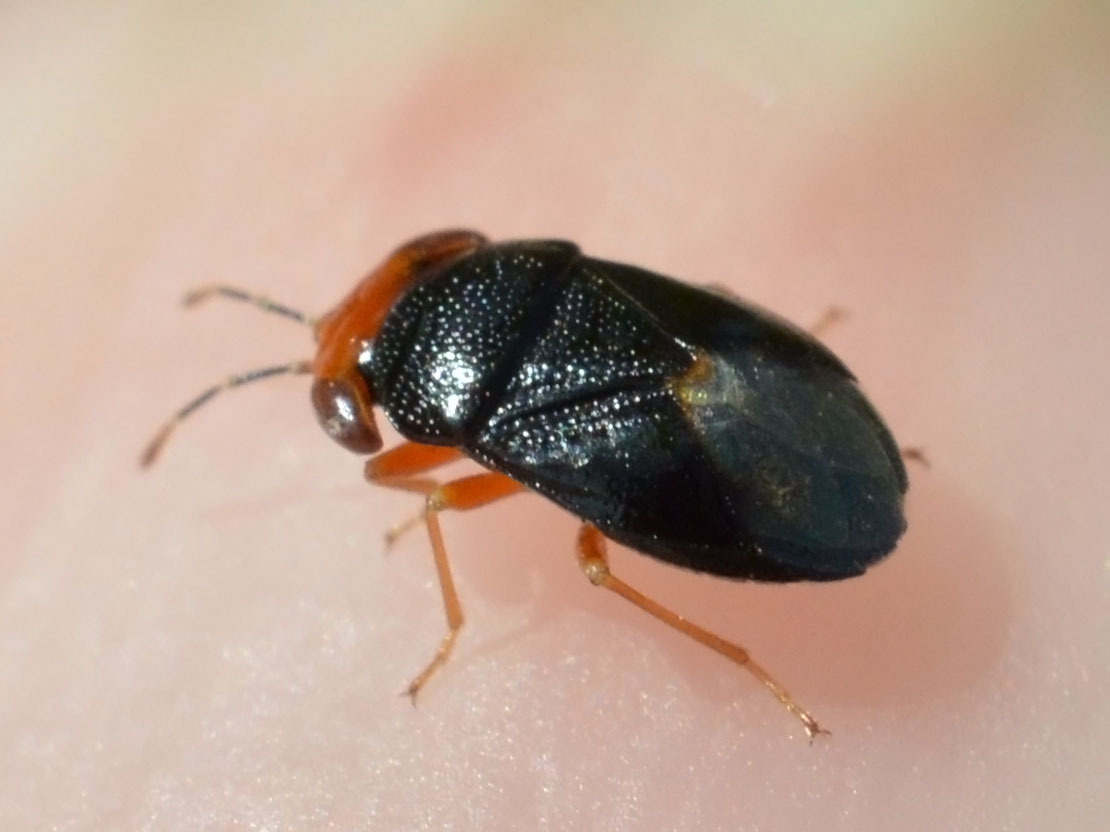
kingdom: Animalia
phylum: Arthropoda
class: Insecta
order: Hemiptera
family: Geocoridae
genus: Geocoris
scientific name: Geocoris erythrocephala
